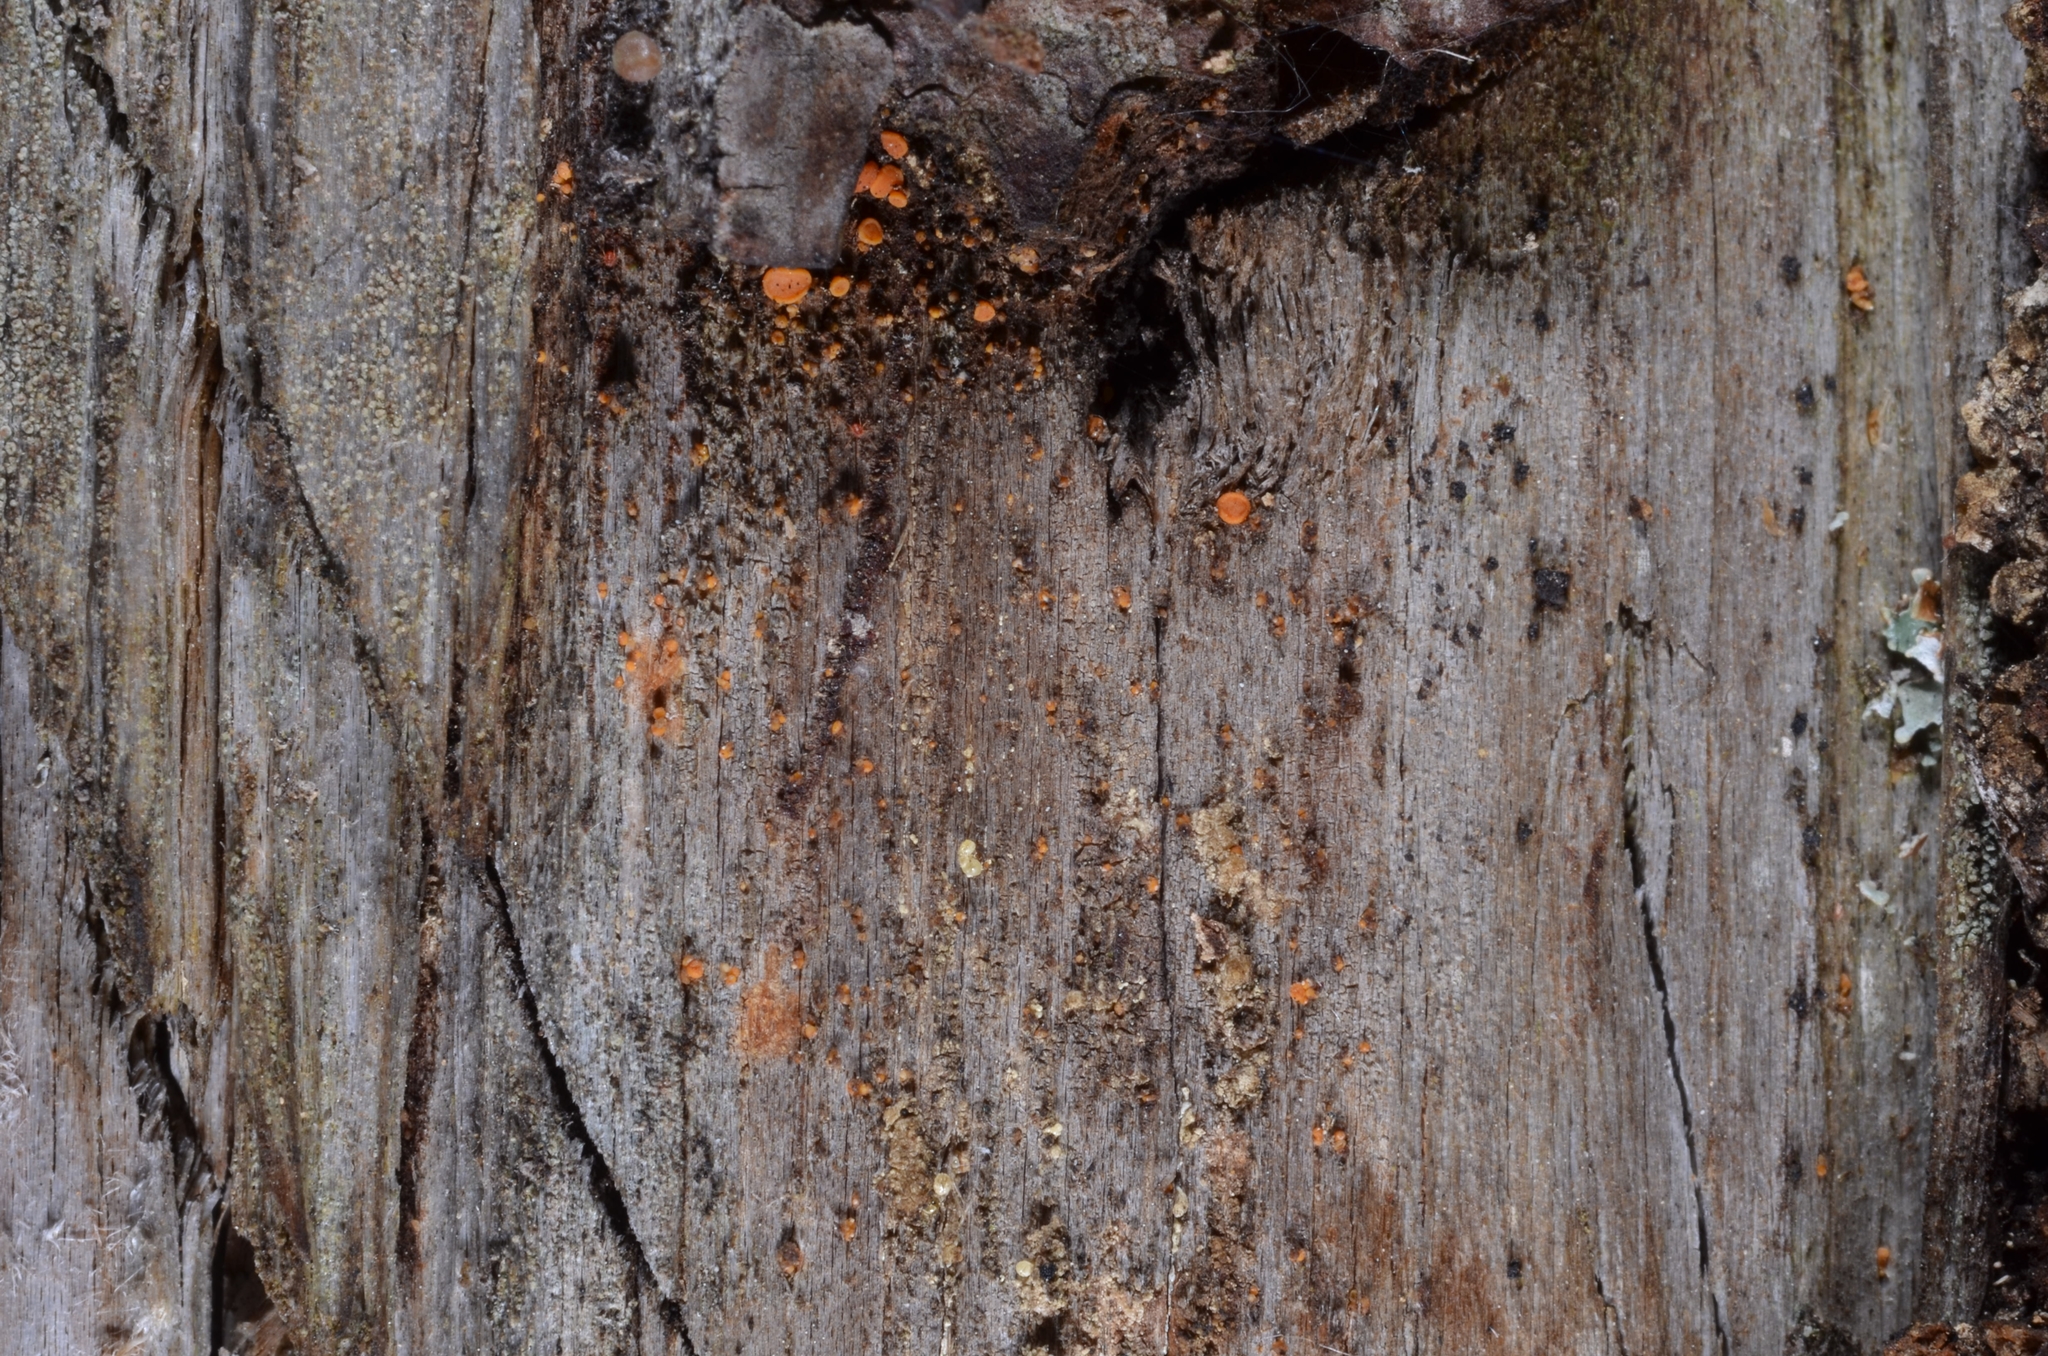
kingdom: Fungi
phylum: Ascomycota
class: Sareomycetes
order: Sareales
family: Sareaceae
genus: Sarea
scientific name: Sarea resinae
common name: Sarea lichen
